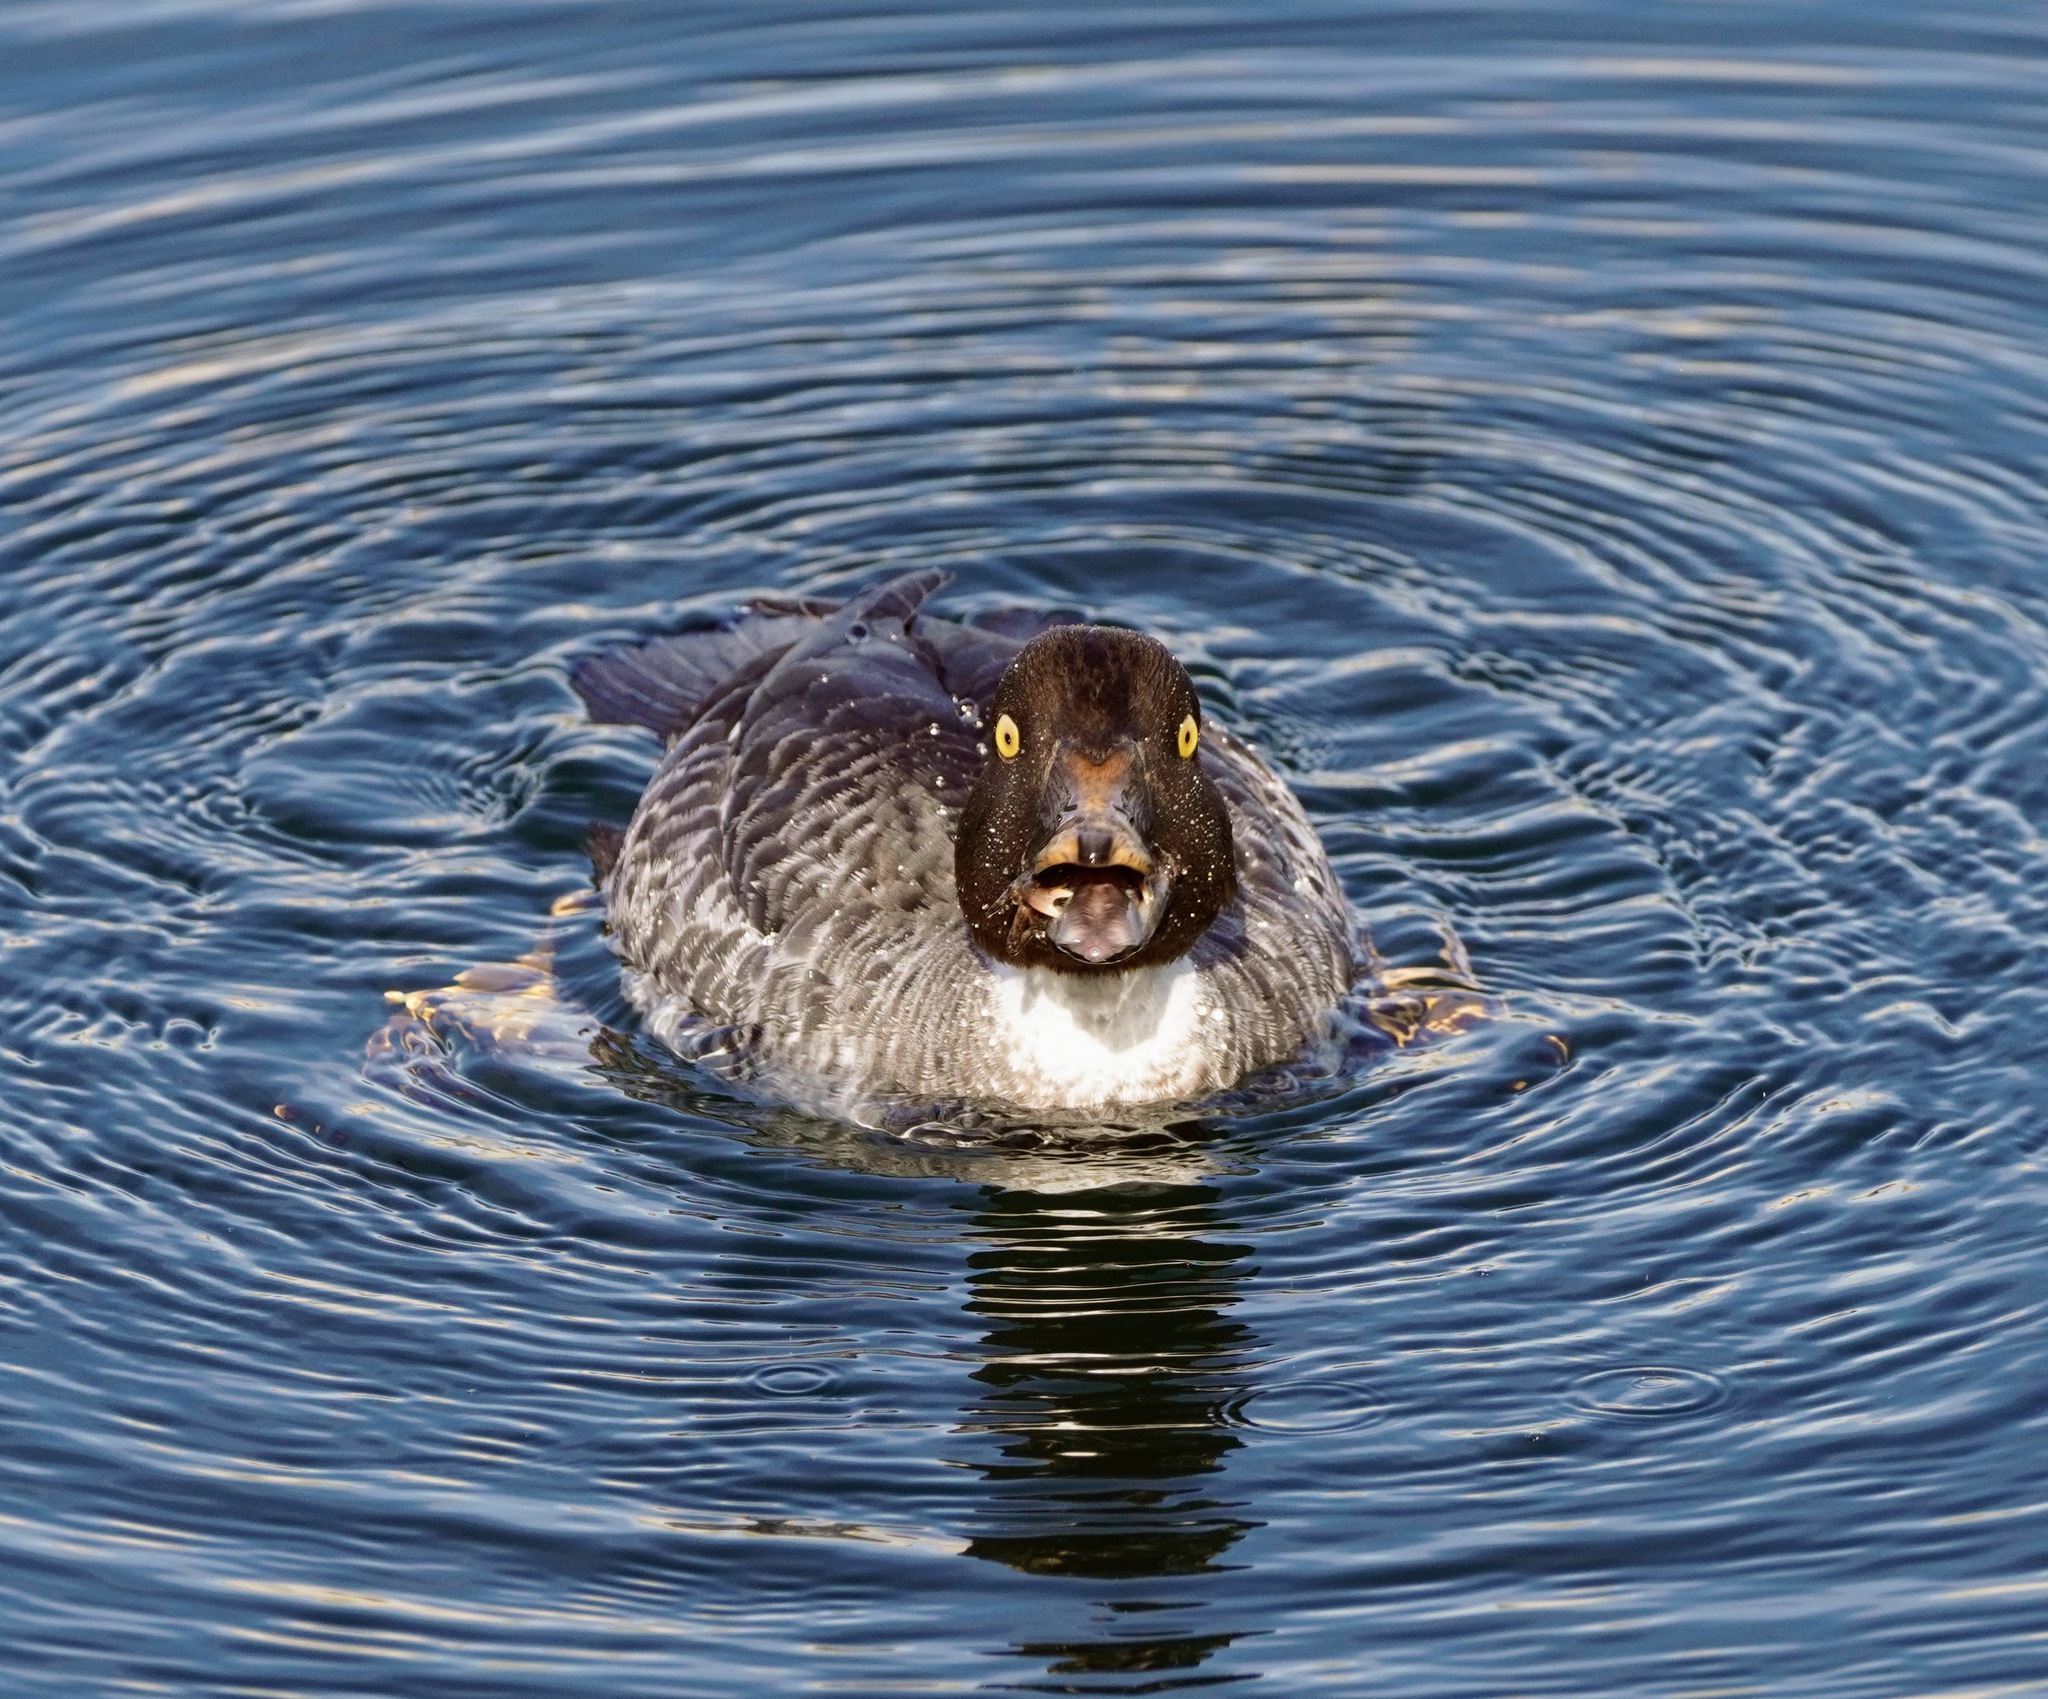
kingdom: Animalia
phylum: Chordata
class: Aves
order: Anseriformes
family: Anatidae
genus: Bucephala
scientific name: Bucephala clangula
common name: Common goldeneye
